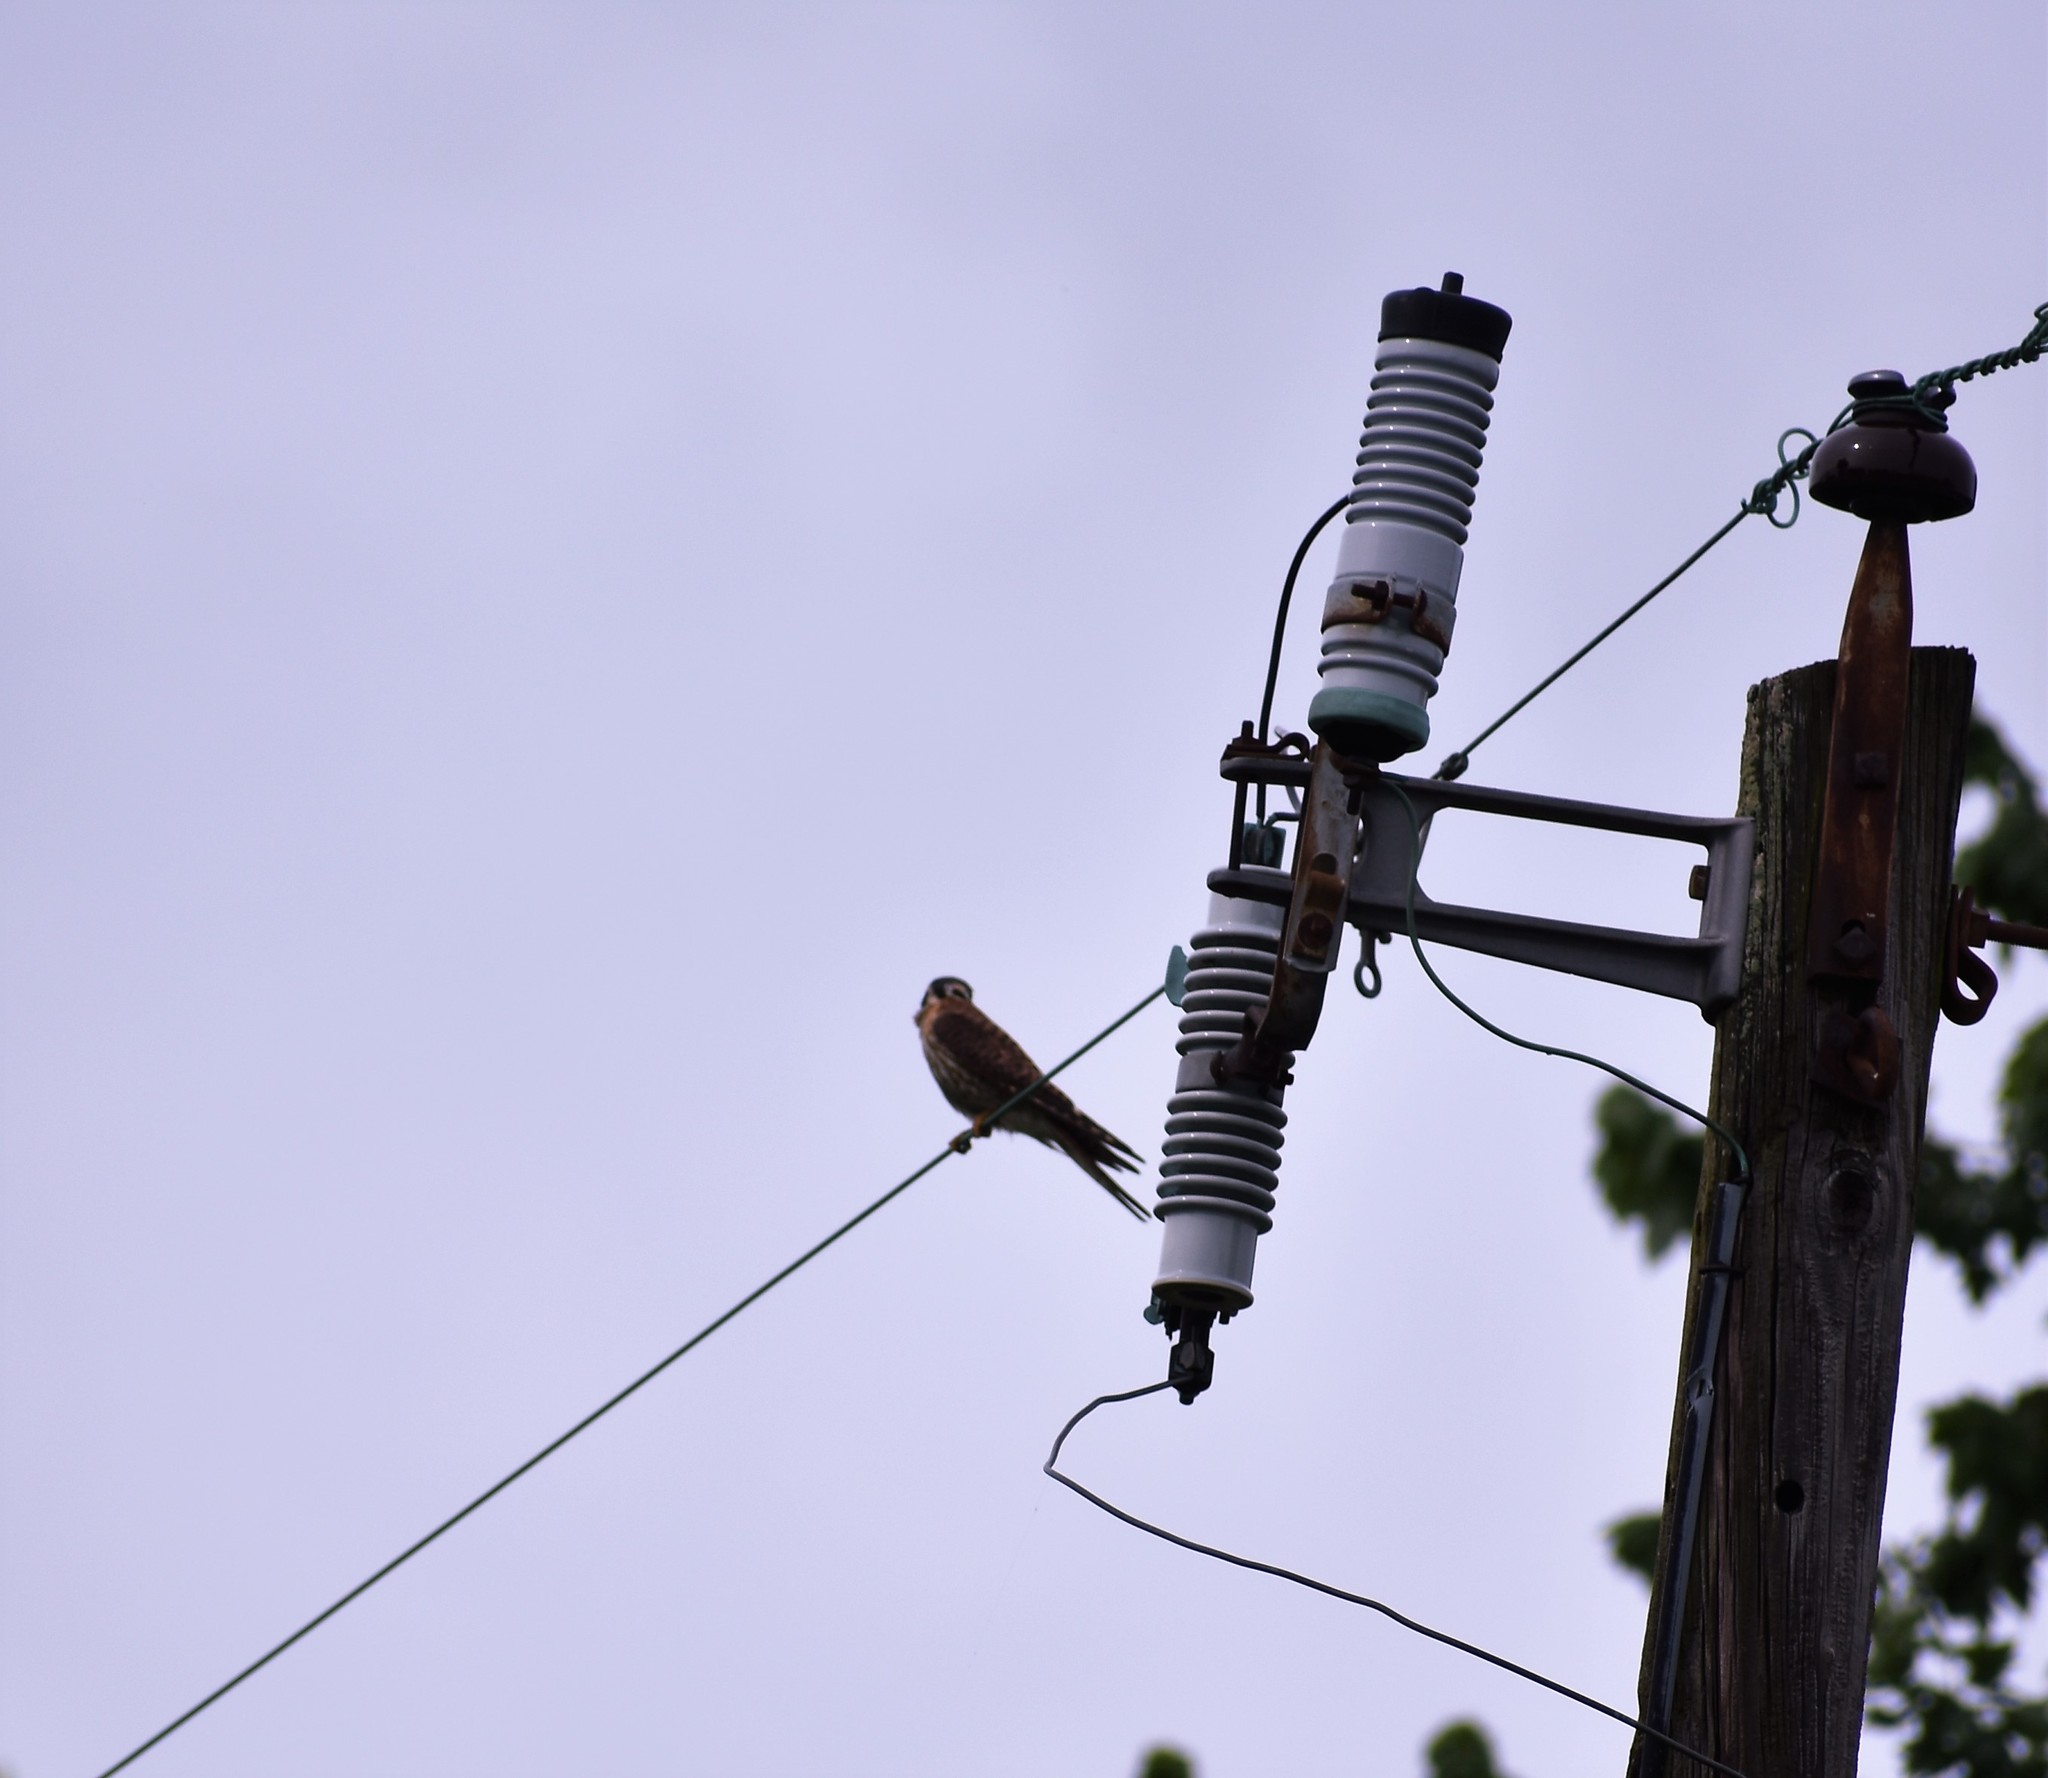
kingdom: Animalia
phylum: Chordata
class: Aves
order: Falconiformes
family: Falconidae
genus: Falco
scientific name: Falco sparverius
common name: American kestrel
